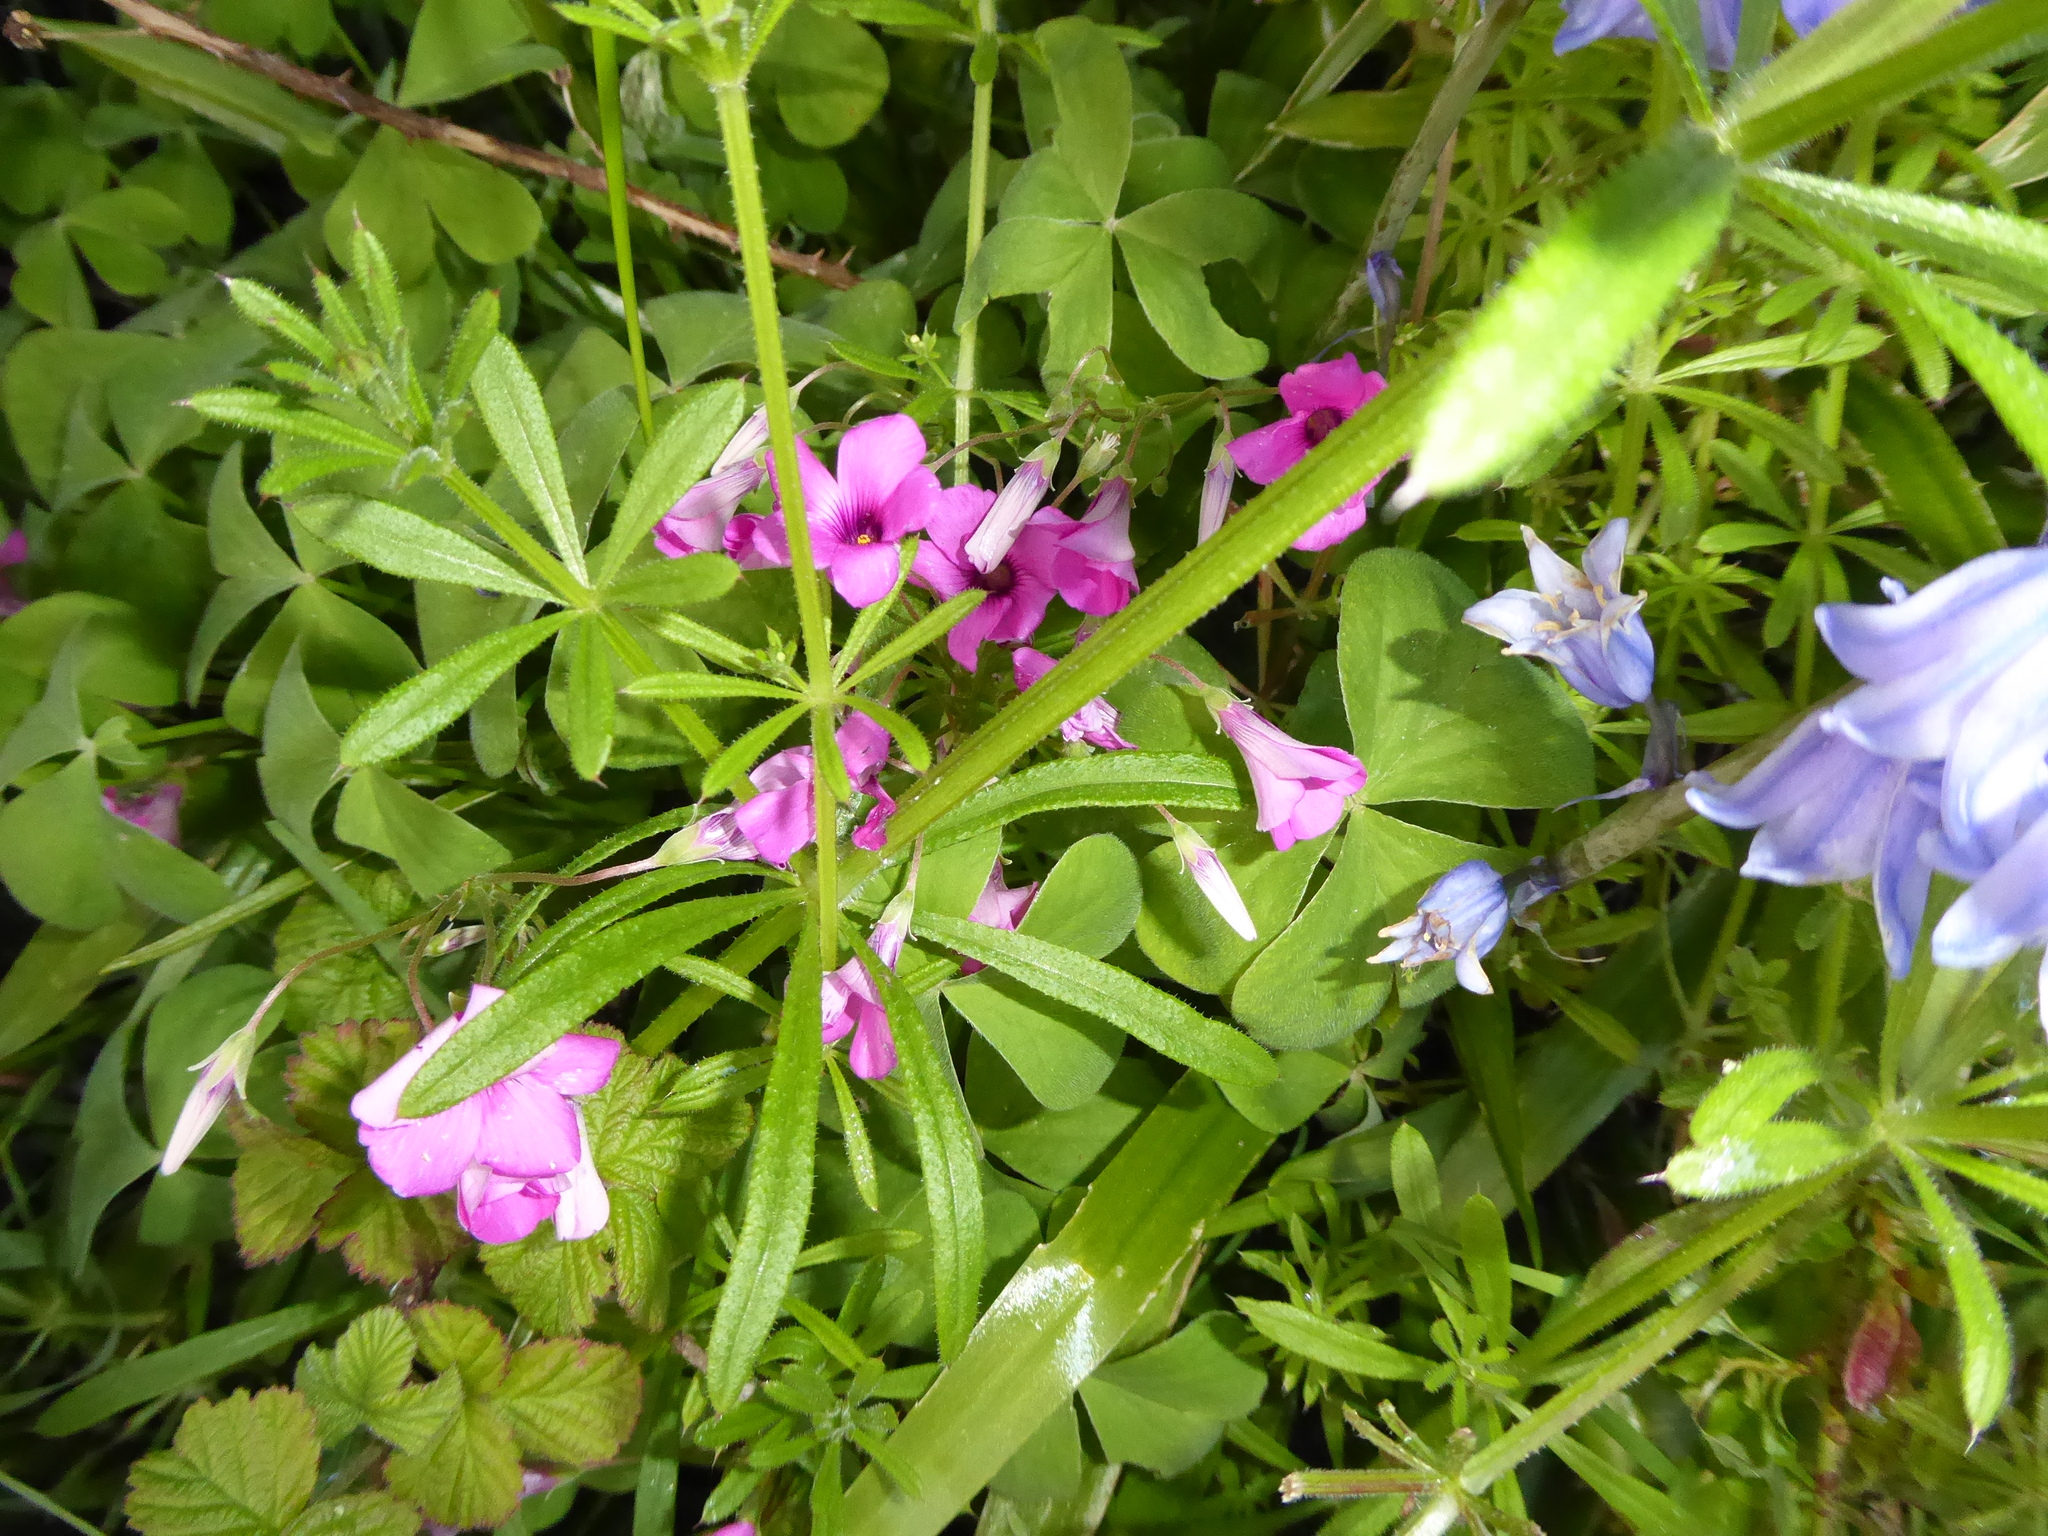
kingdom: Plantae
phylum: Tracheophyta
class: Magnoliopsida
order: Oxalidales
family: Oxalidaceae
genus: Oxalis
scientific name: Oxalis articulata
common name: Pink-sorrel
